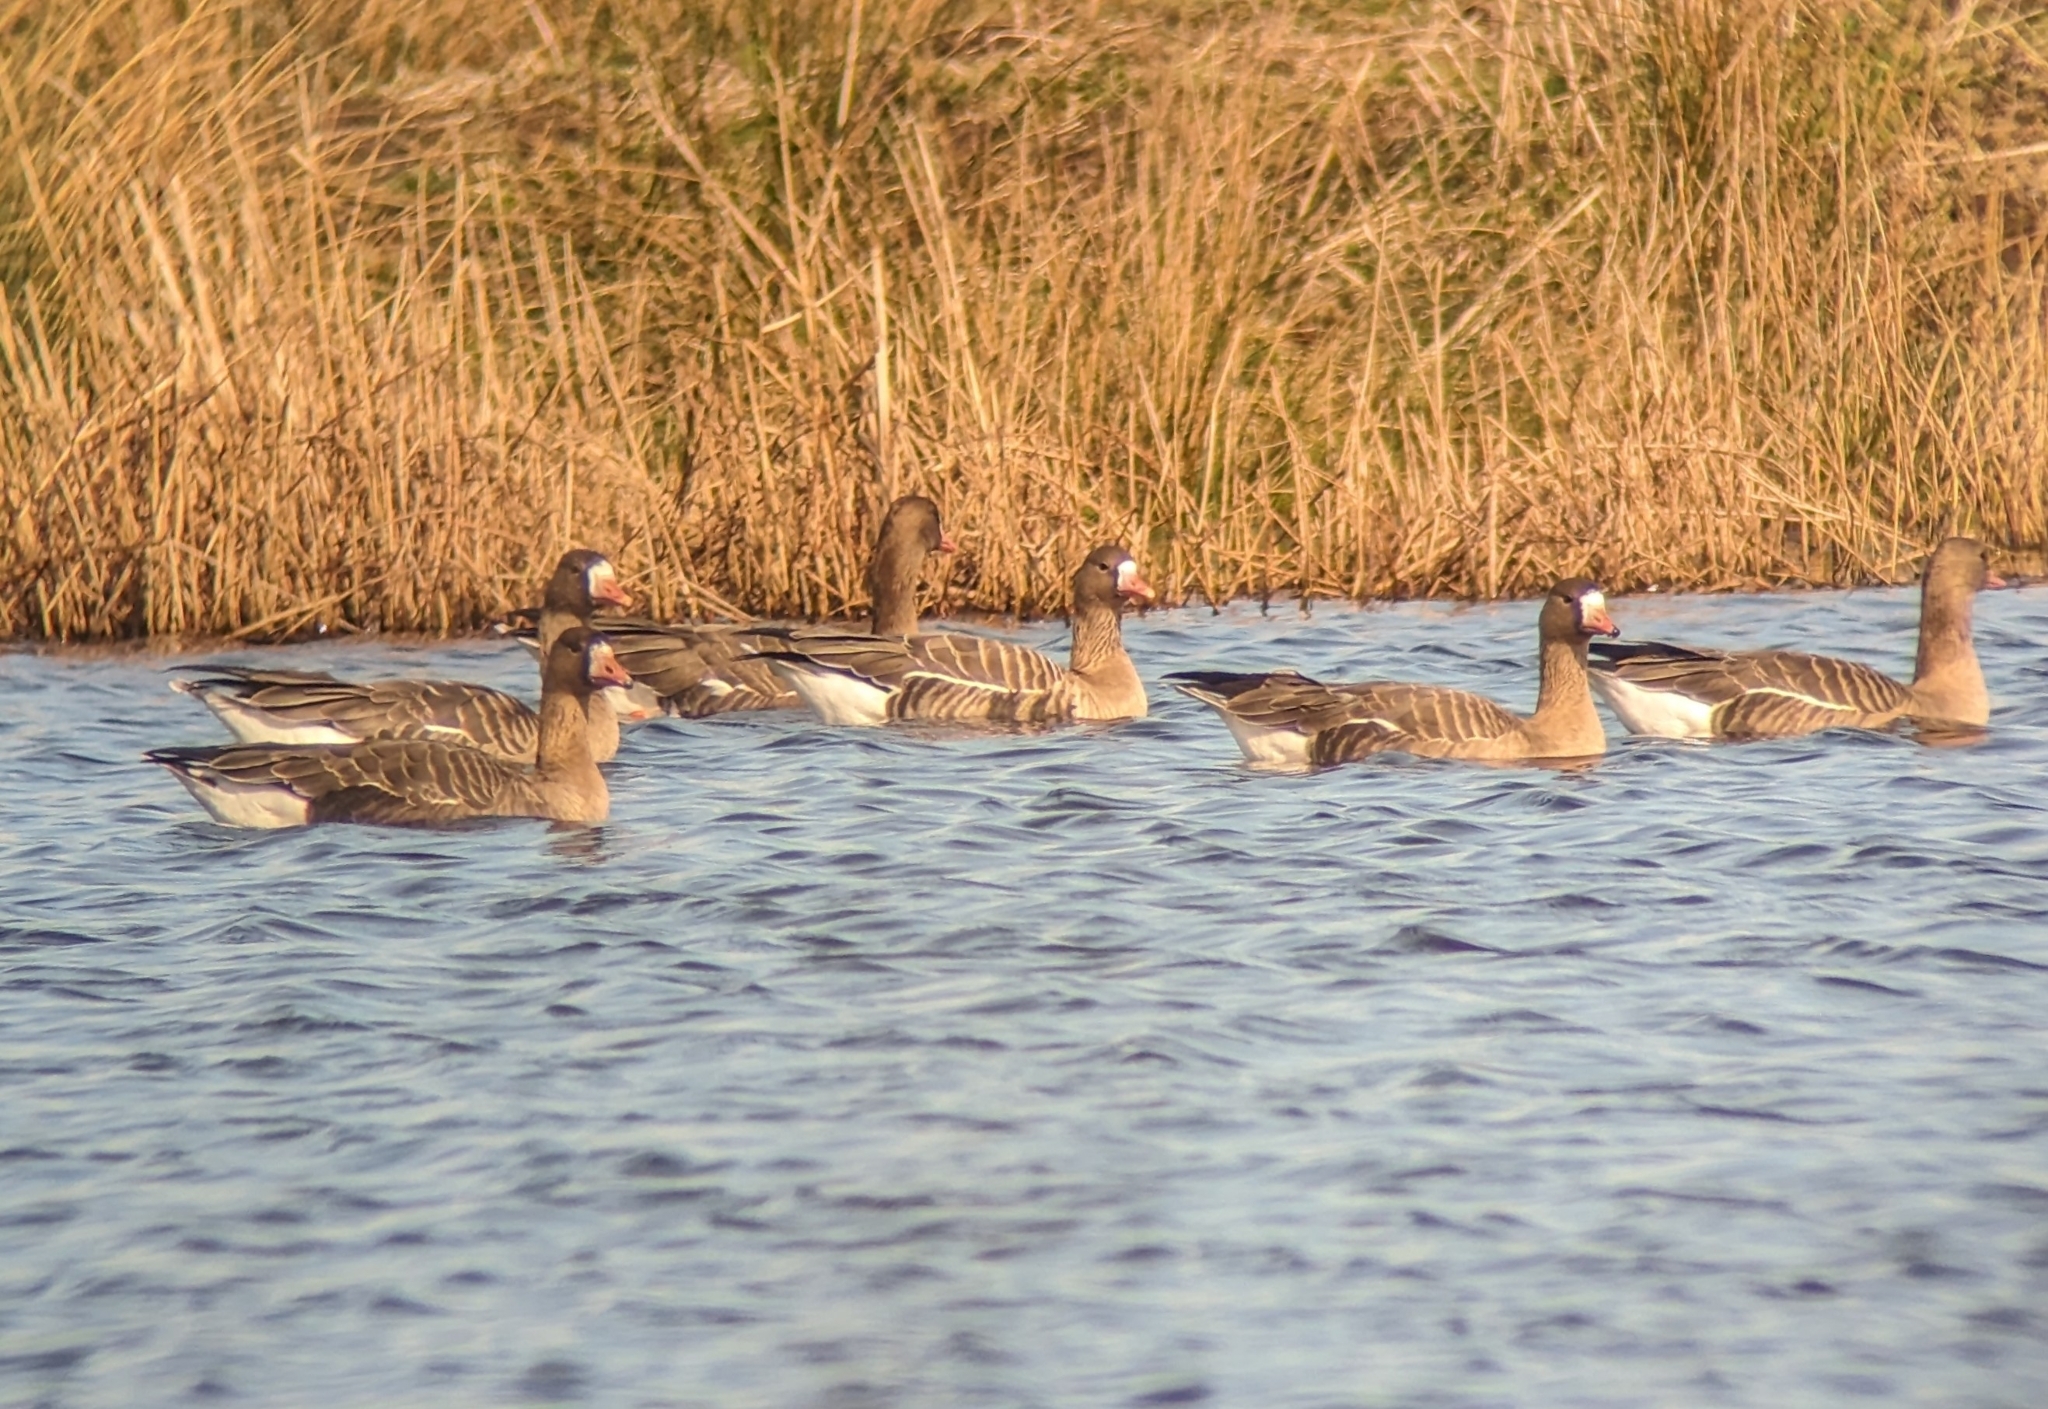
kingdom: Animalia
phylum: Chordata
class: Aves
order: Anseriformes
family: Anatidae
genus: Anser
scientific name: Anser albifrons
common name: Greater white-fronted goose
